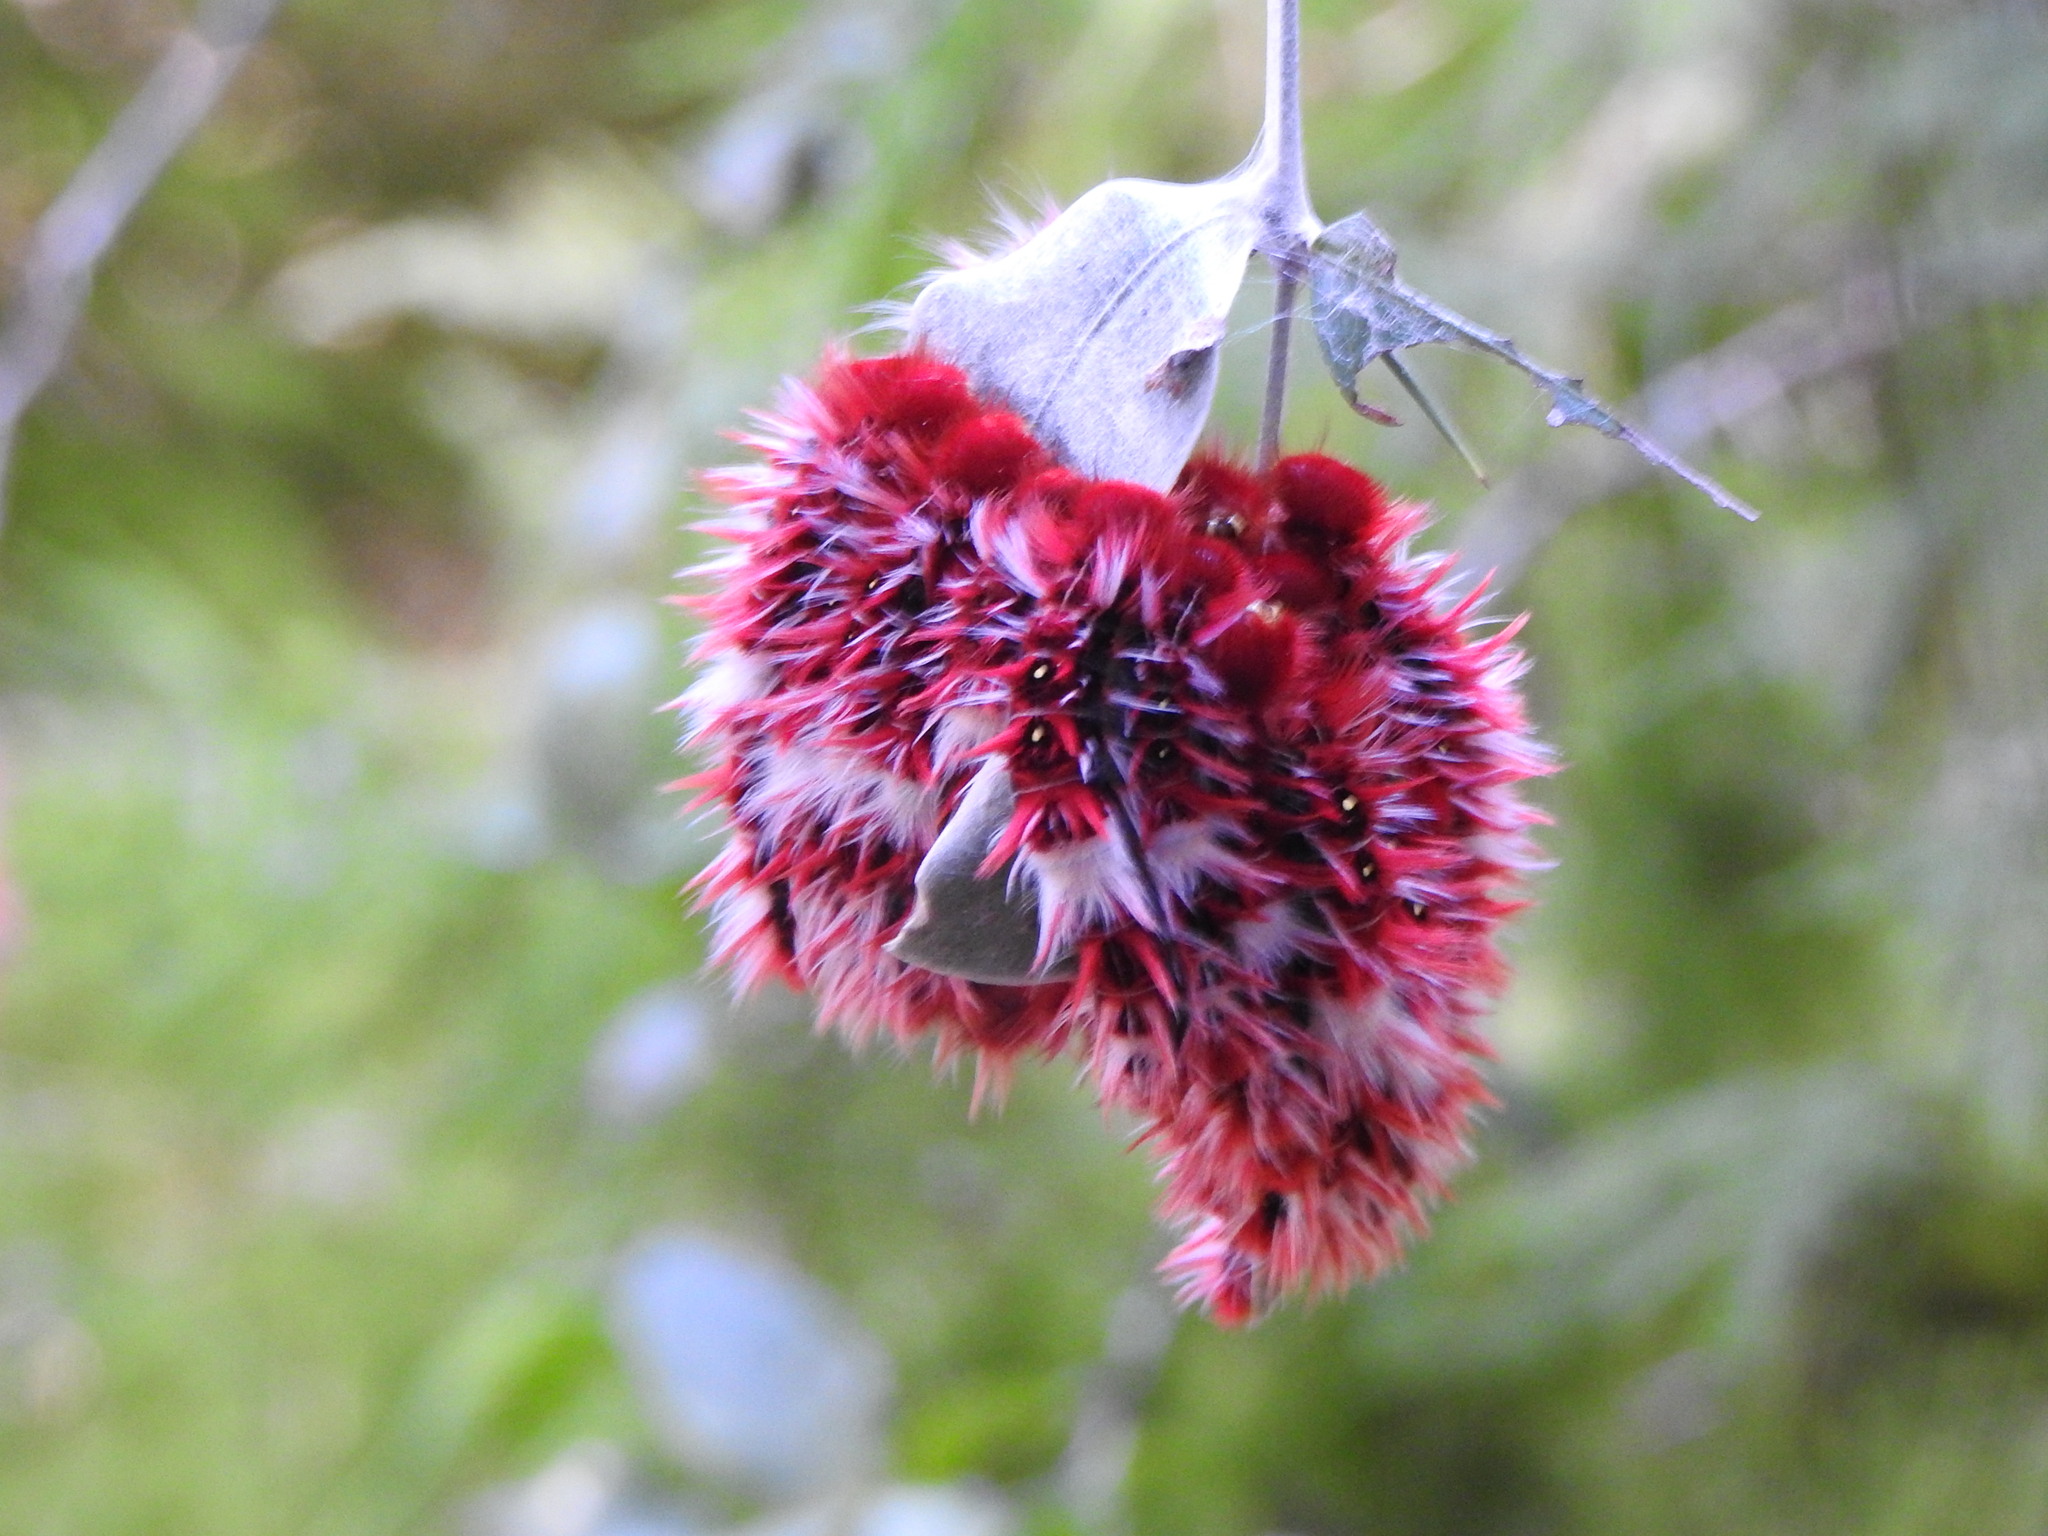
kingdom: Animalia
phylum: Arthropoda
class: Insecta
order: Lepidoptera
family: Nymphalidae
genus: Morpho
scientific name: Morpho epistrophus
